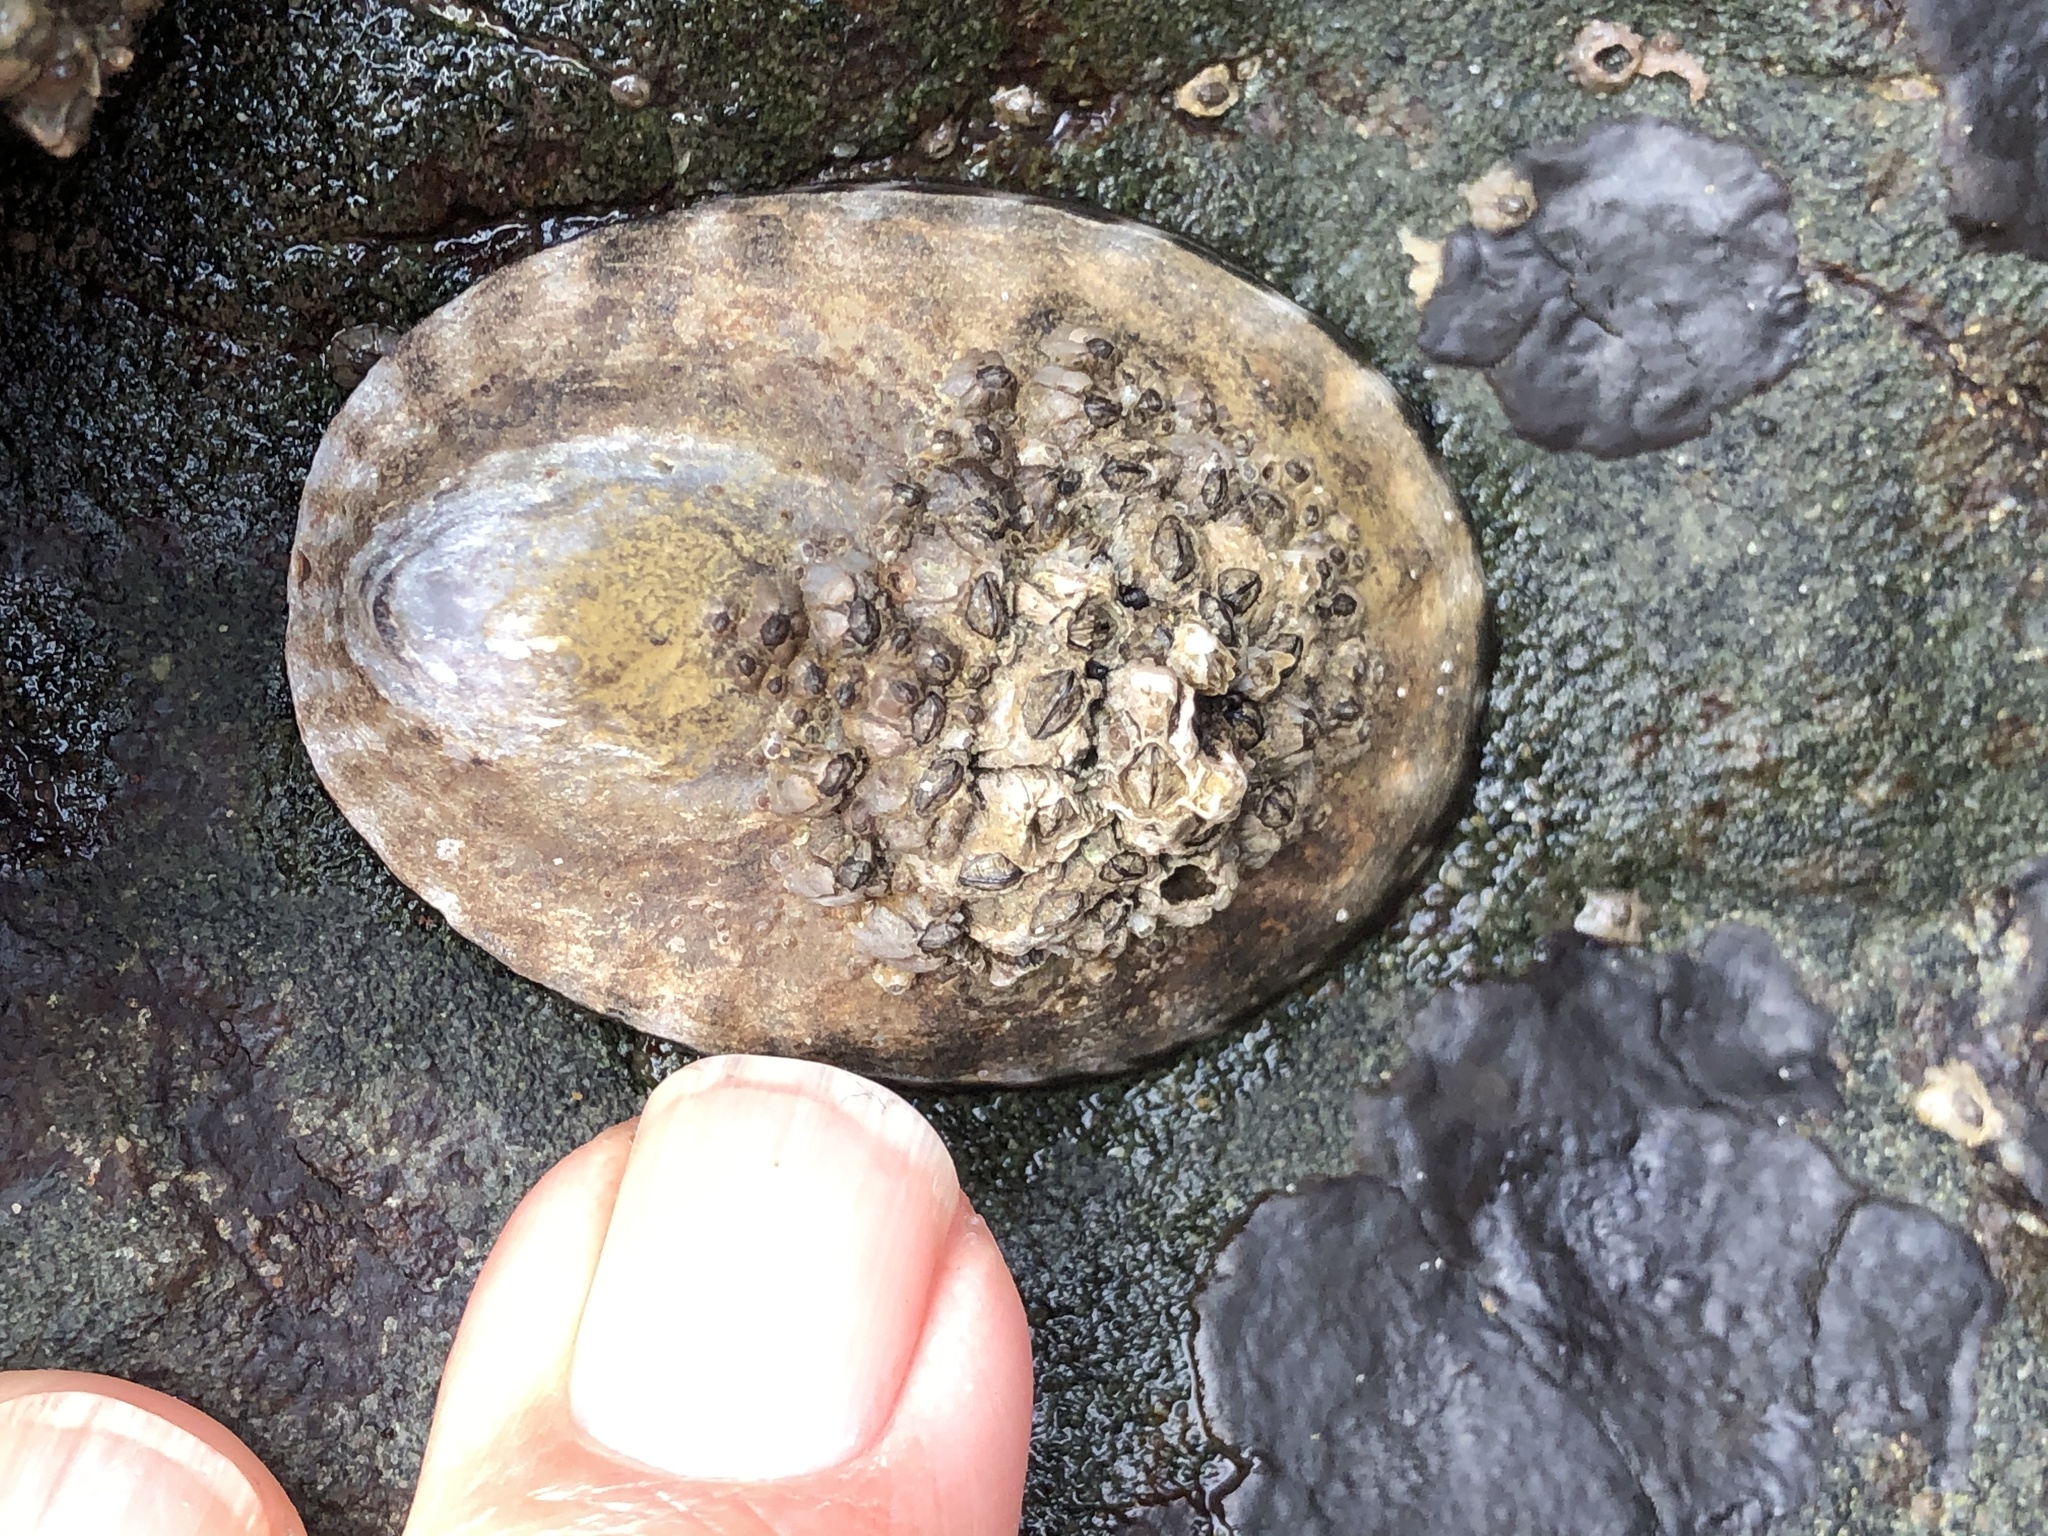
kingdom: Animalia
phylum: Mollusca
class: Gastropoda
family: Lottiidae
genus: Lottia
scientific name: Lottia gigantea
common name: Owl limpet
